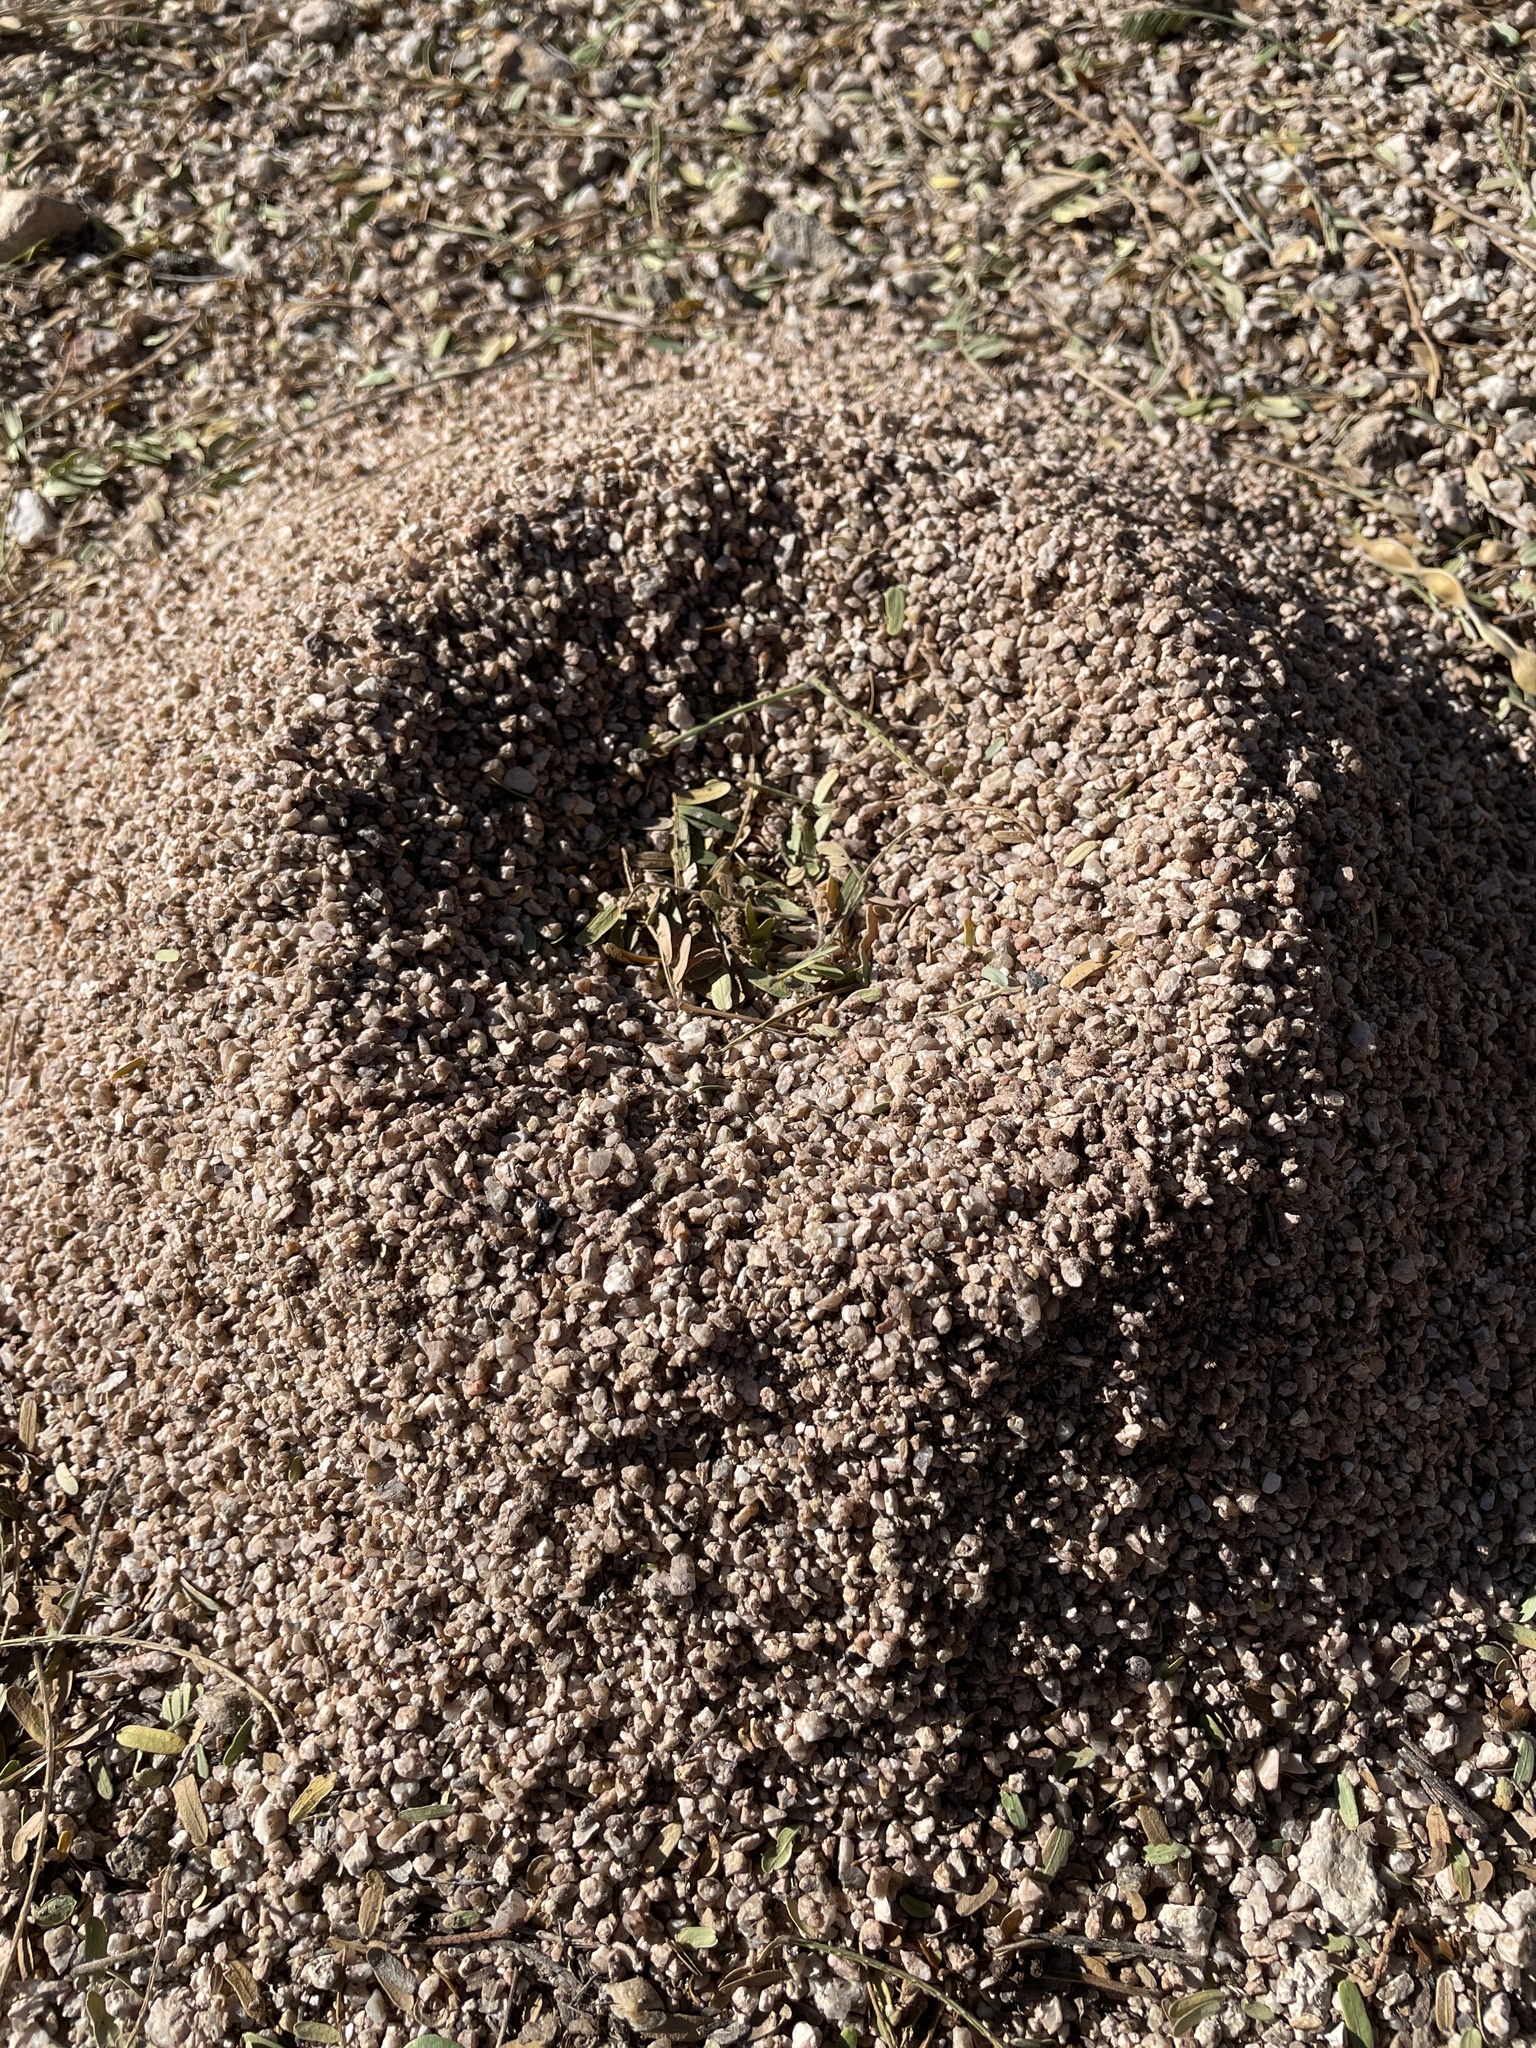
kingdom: Animalia
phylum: Arthropoda
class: Insecta
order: Hymenoptera
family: Formicidae
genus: Acromyrmex
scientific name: Acromyrmex versicolor
